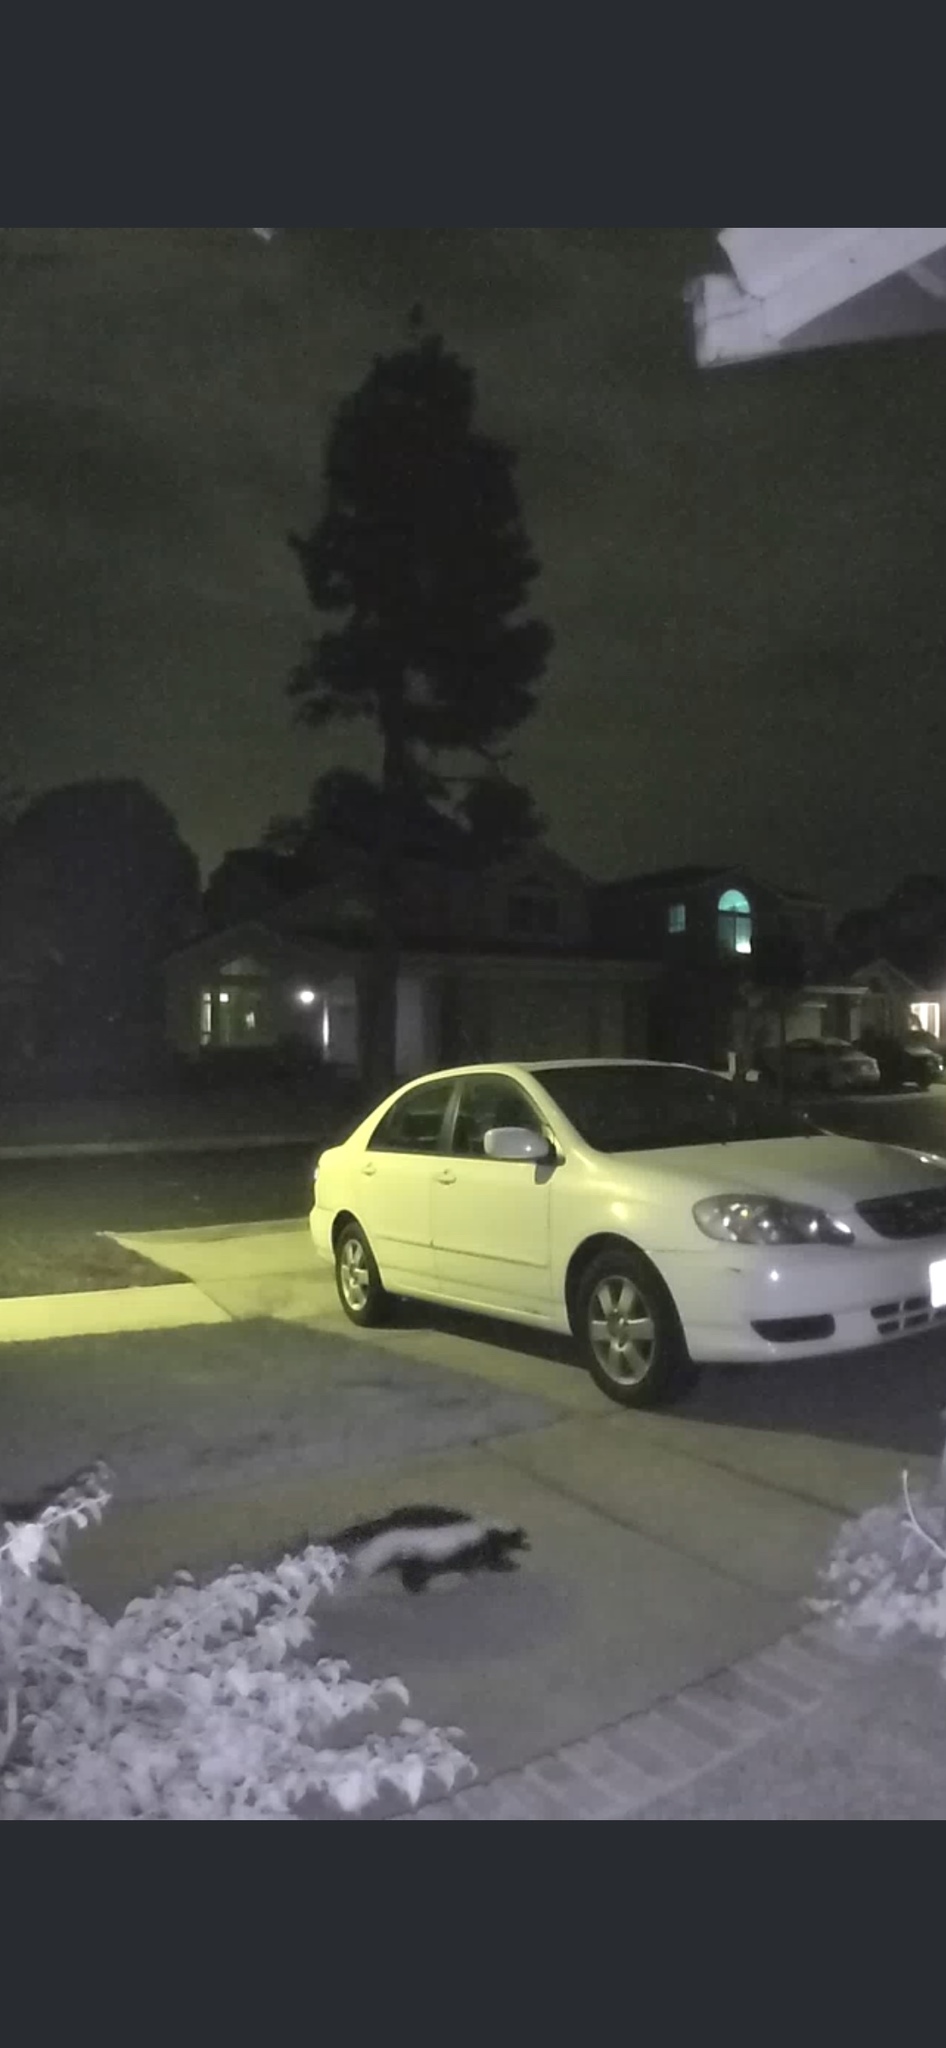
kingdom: Animalia
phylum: Chordata
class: Mammalia
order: Carnivora
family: Mephitidae
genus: Mephitis
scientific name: Mephitis mephitis
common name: Striped skunk
